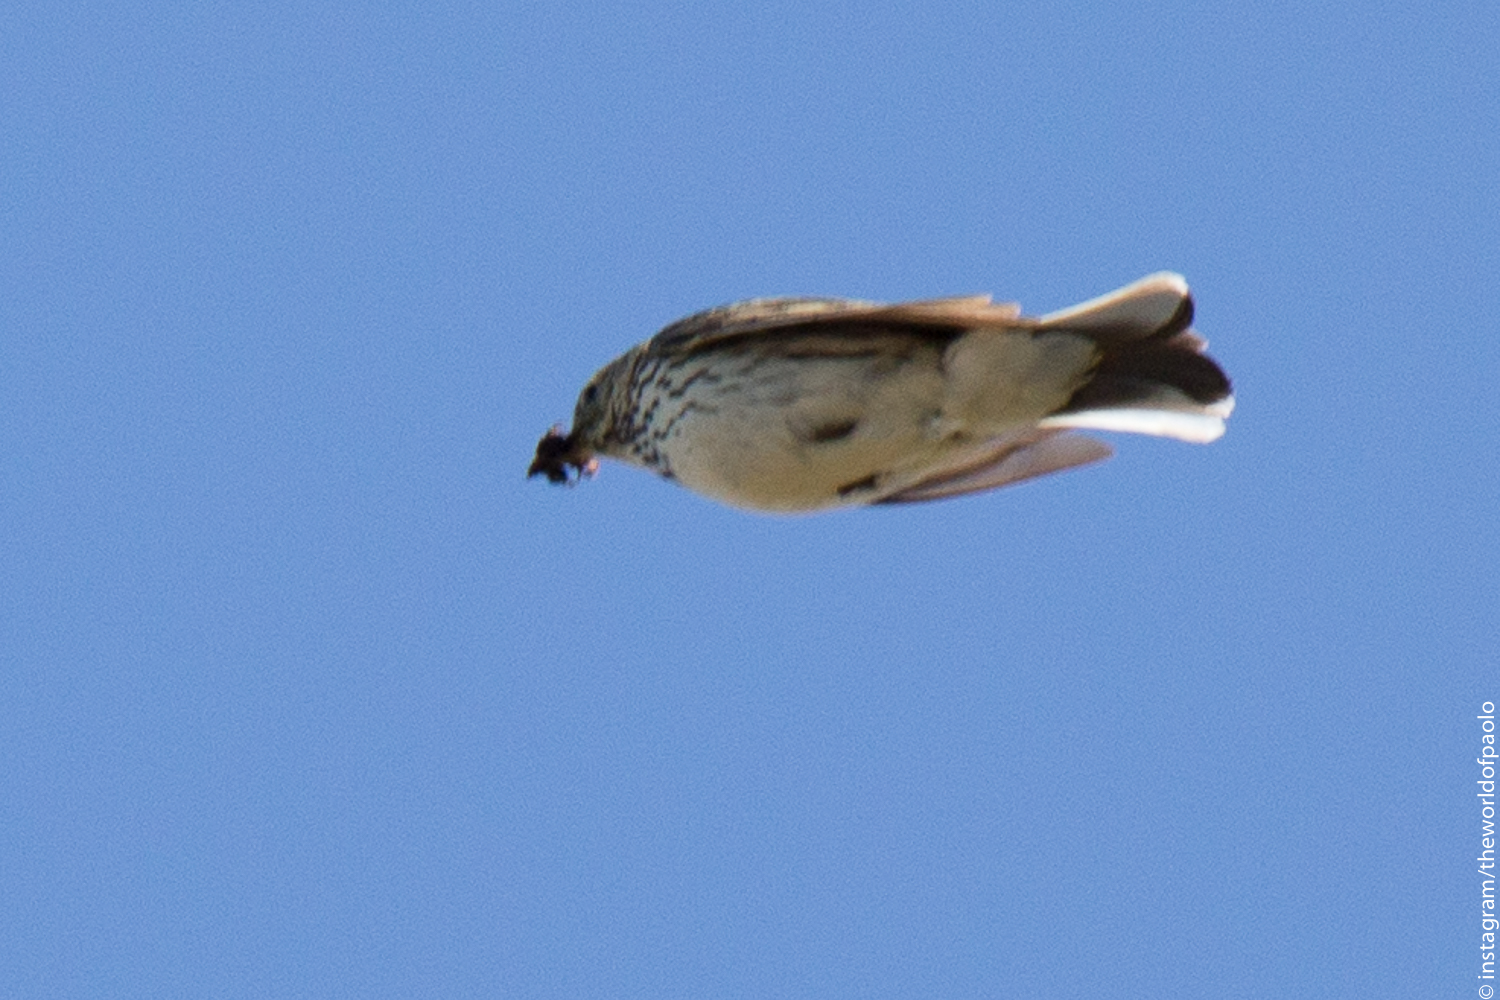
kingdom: Animalia
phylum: Chordata
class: Aves
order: Passeriformes
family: Motacillidae
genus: Anthus
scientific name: Anthus pratensis
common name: Meadow pipit
